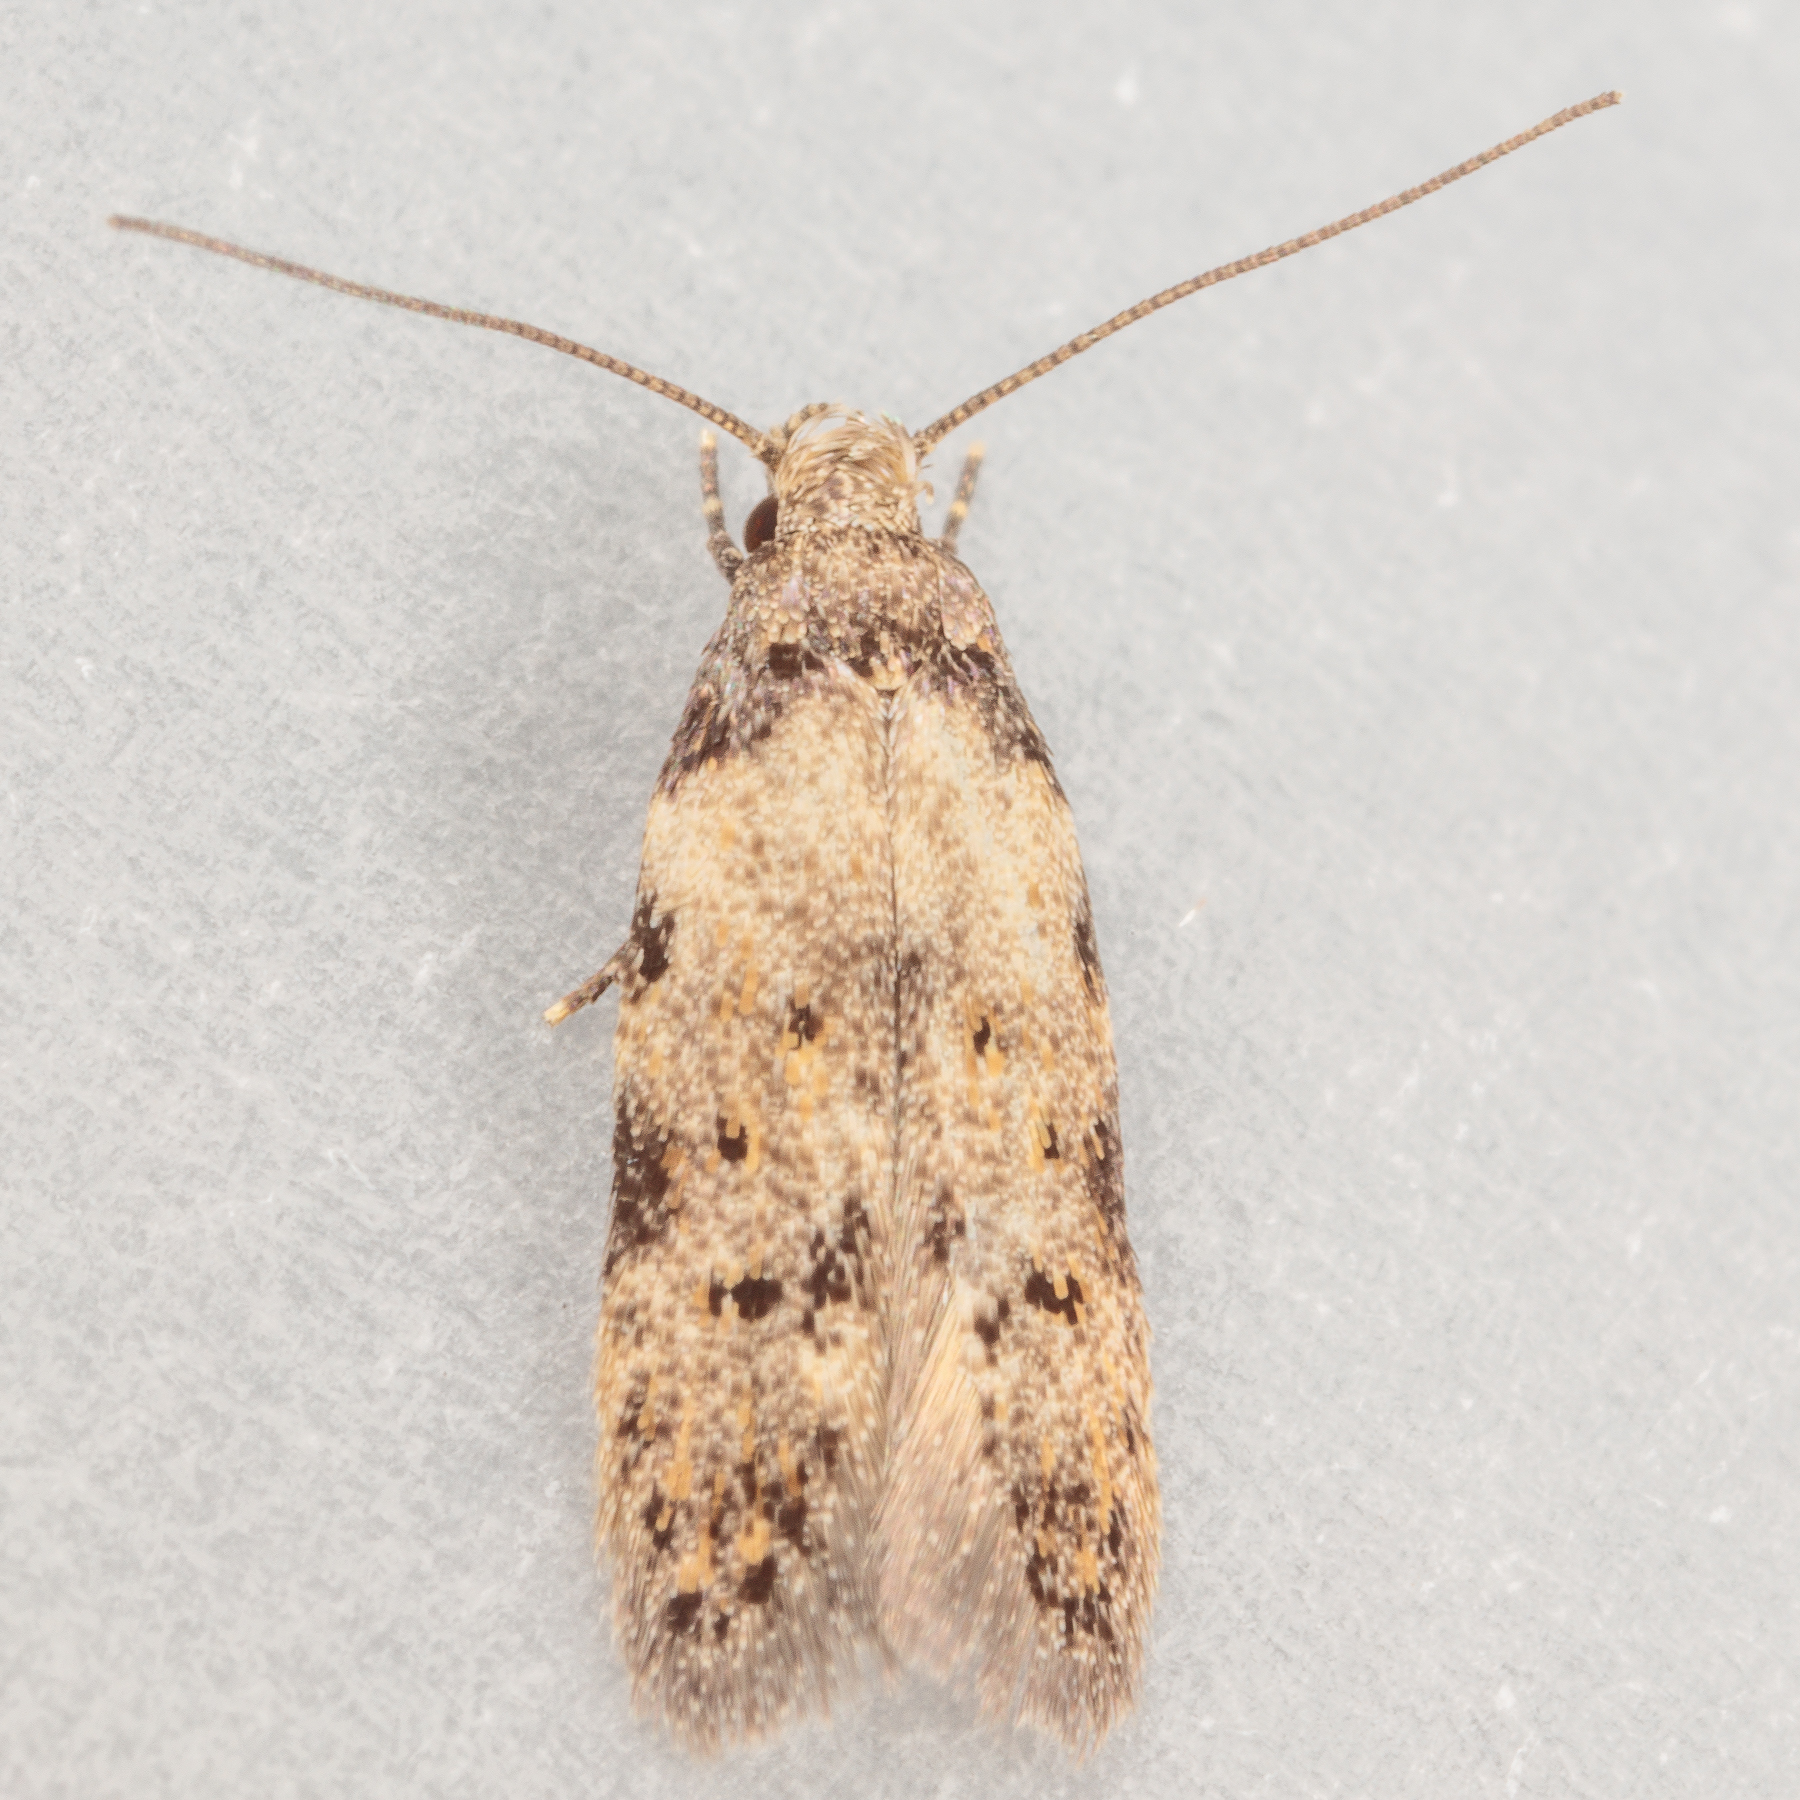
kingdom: Animalia
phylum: Arthropoda
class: Insecta
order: Lepidoptera
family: Autostichidae
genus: Taygete
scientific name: Taygete attributella
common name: Triangle-marked twirler moth
